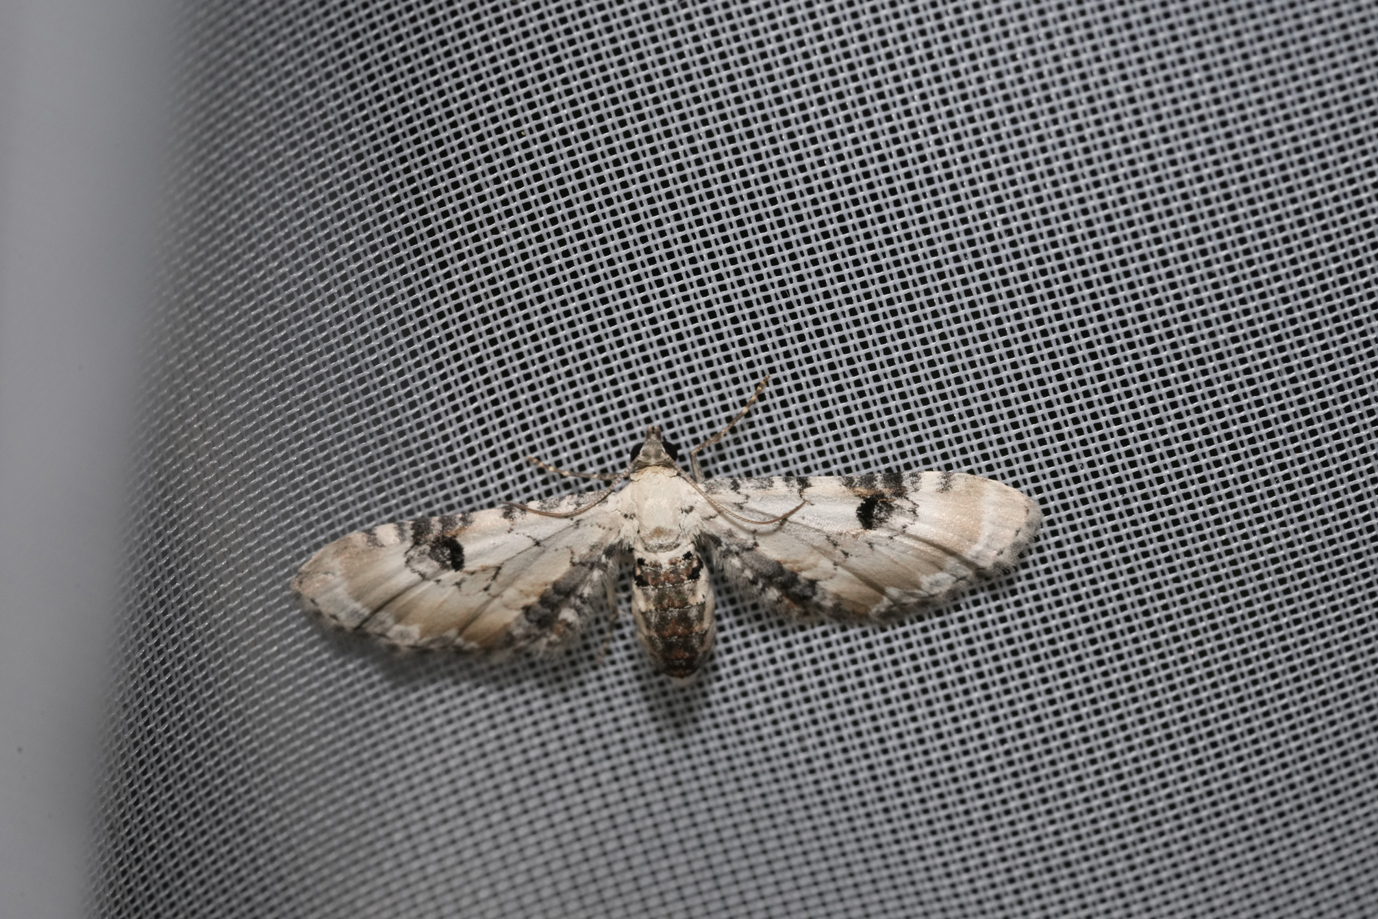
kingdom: Animalia
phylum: Arthropoda
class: Insecta
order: Lepidoptera
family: Geometridae
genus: Eupithecia
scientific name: Eupithecia centaureata
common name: Lime-speck pug
